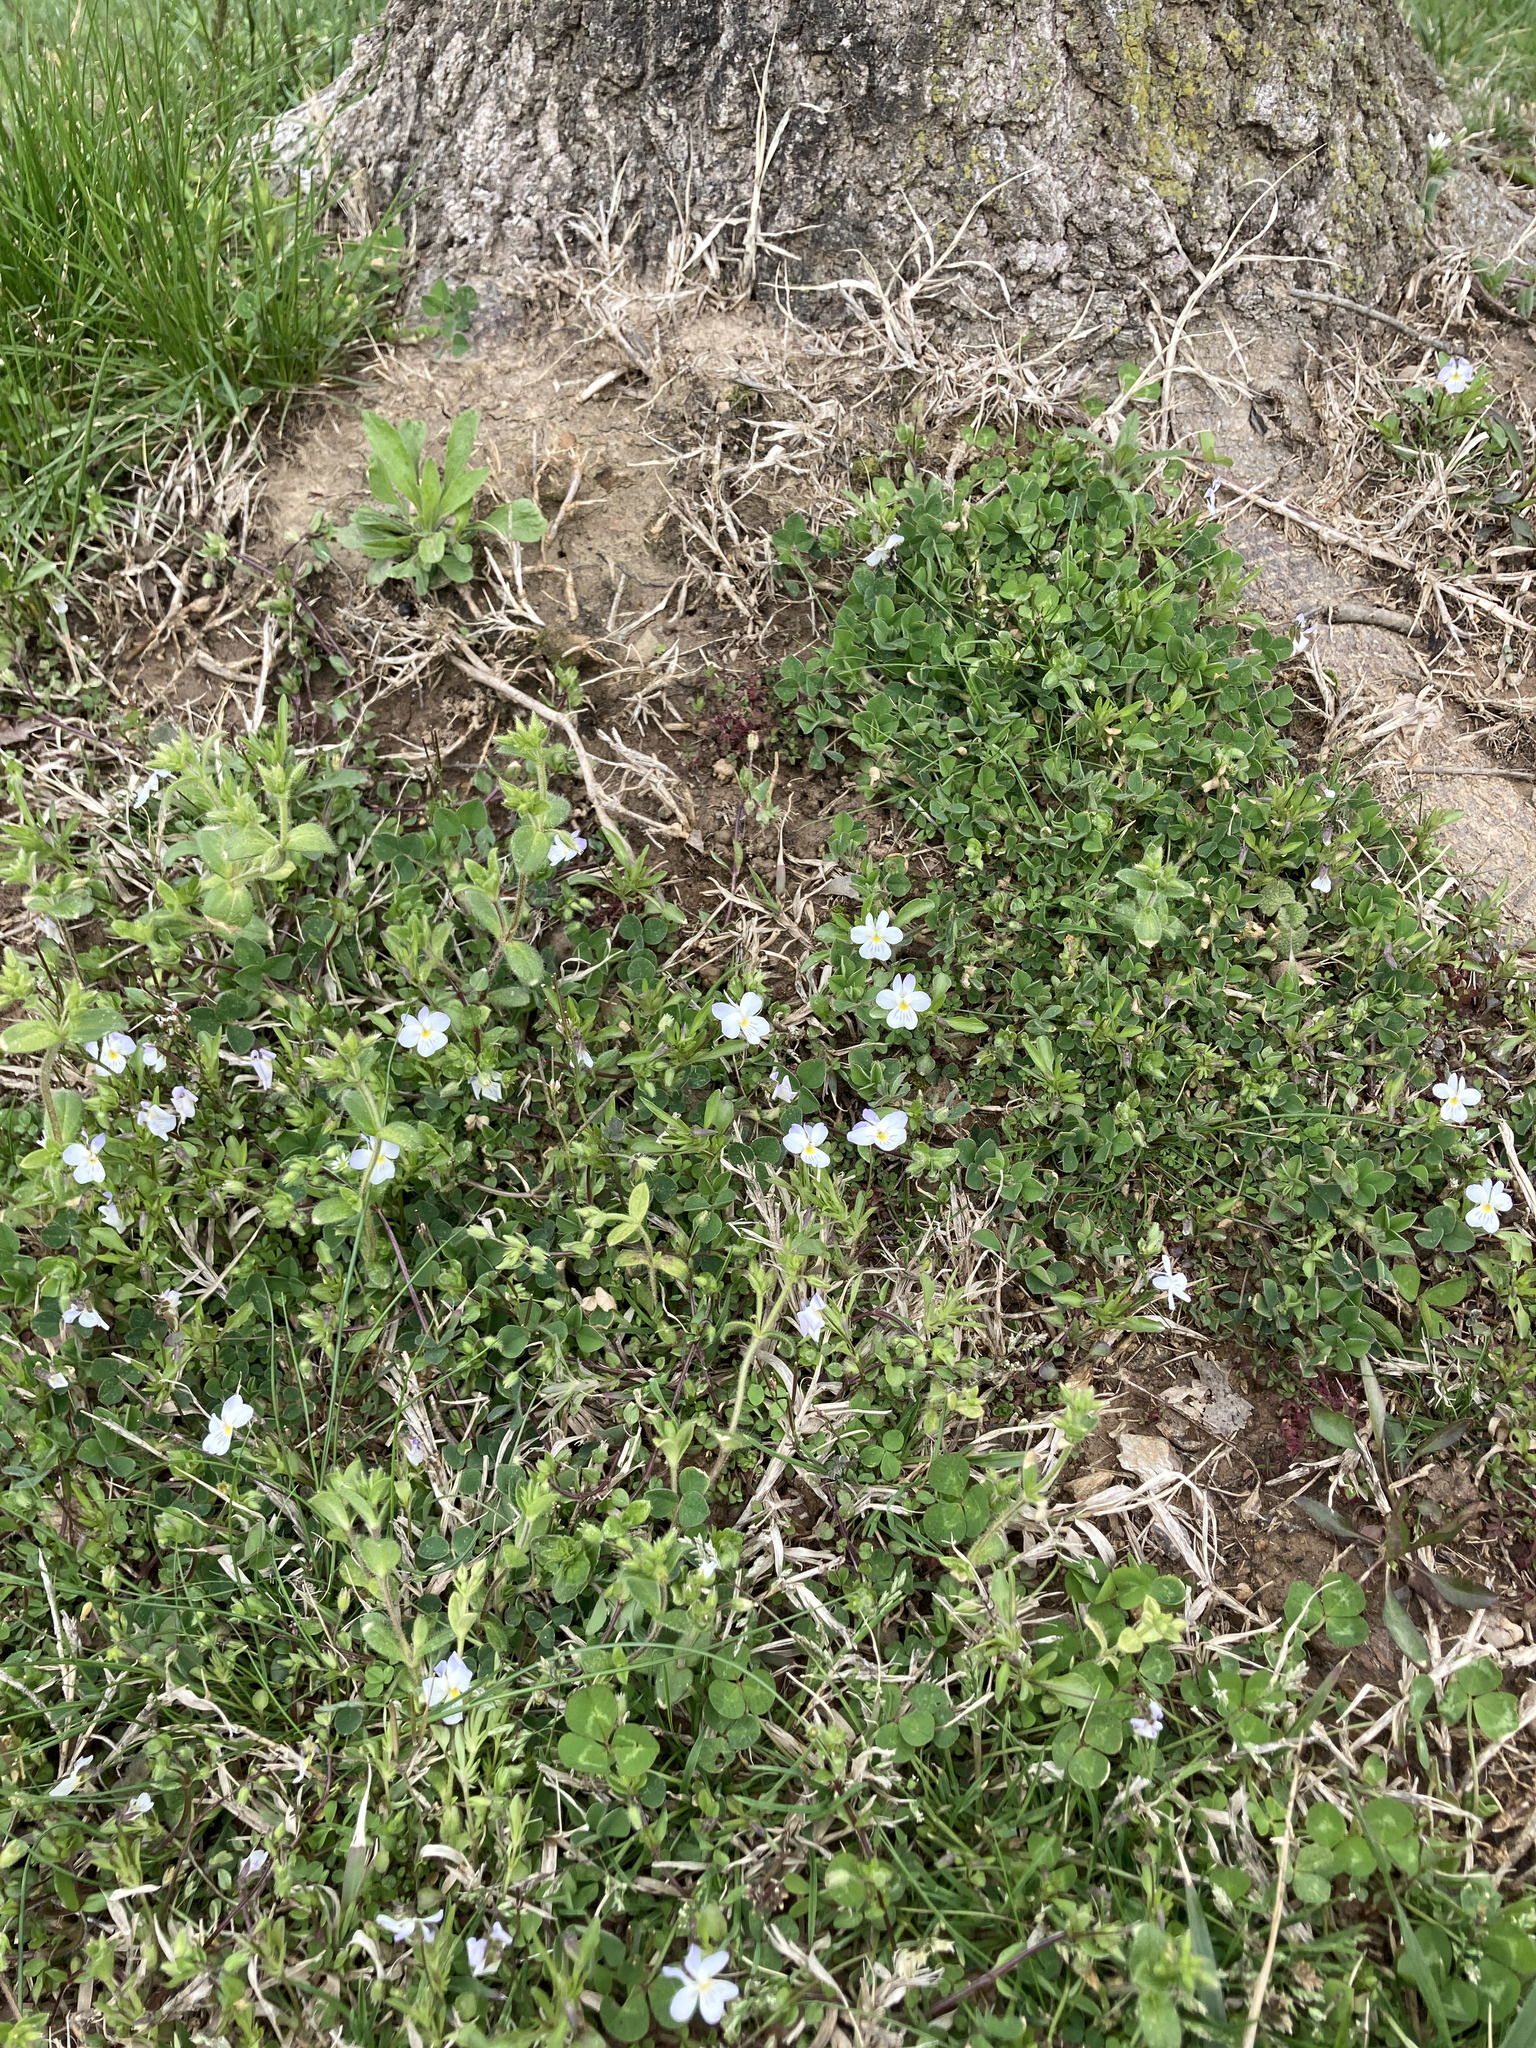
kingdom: Plantae
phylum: Tracheophyta
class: Magnoliopsida
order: Malpighiales
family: Violaceae
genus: Viola
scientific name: Viola rafinesquei
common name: American field pansy
